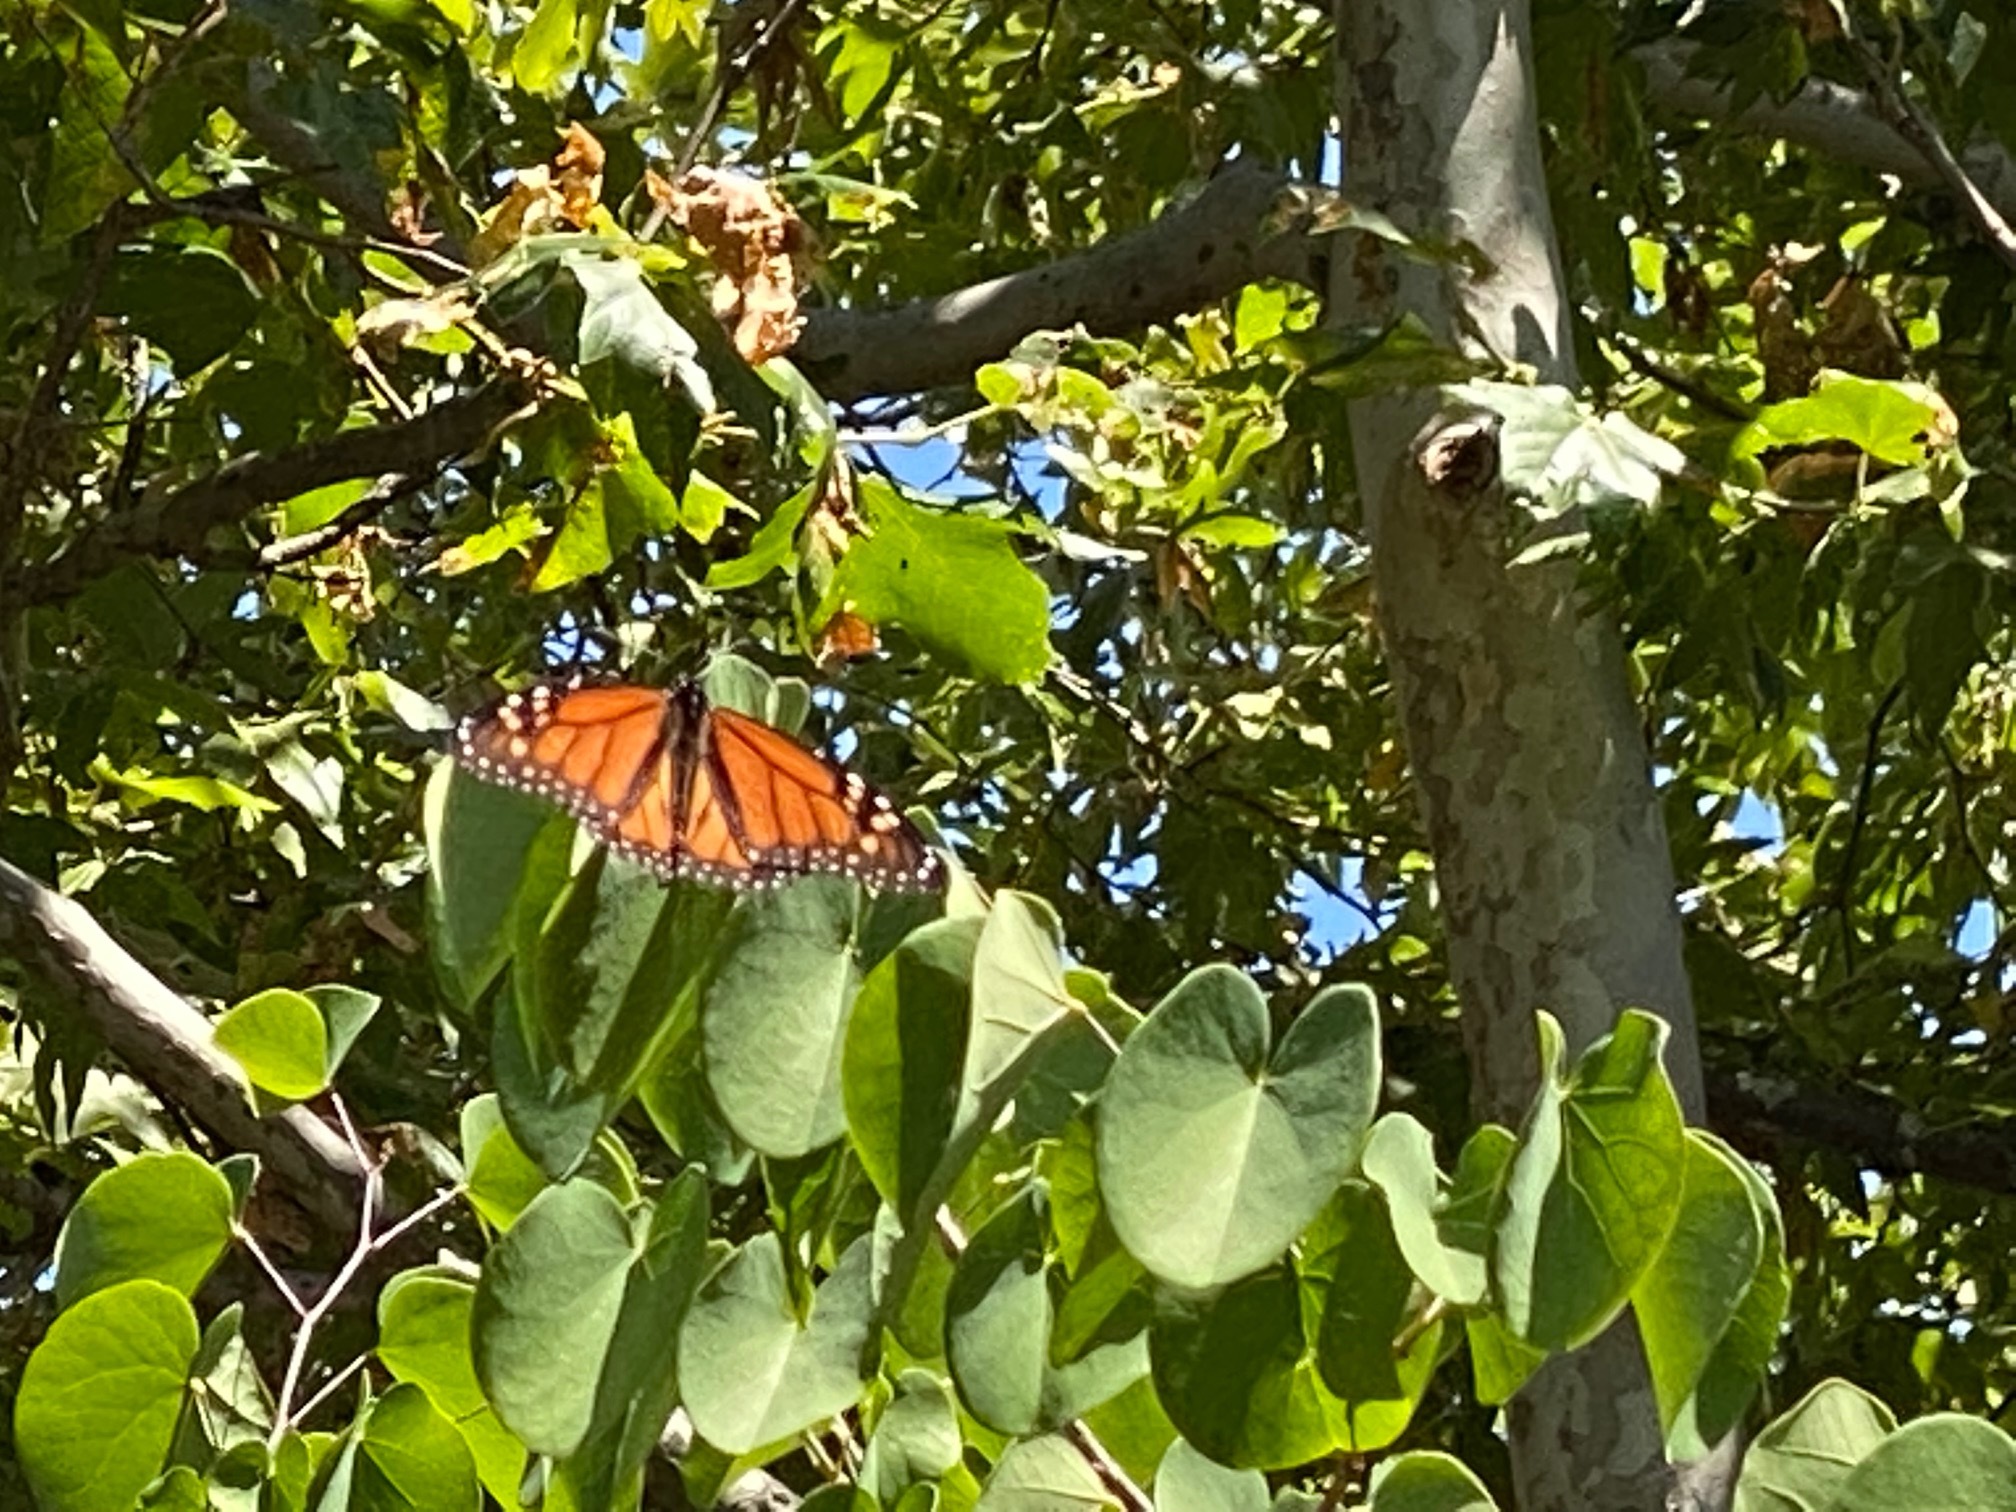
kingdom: Animalia
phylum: Arthropoda
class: Insecta
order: Lepidoptera
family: Nymphalidae
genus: Danaus
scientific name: Danaus plexippus
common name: Monarch
